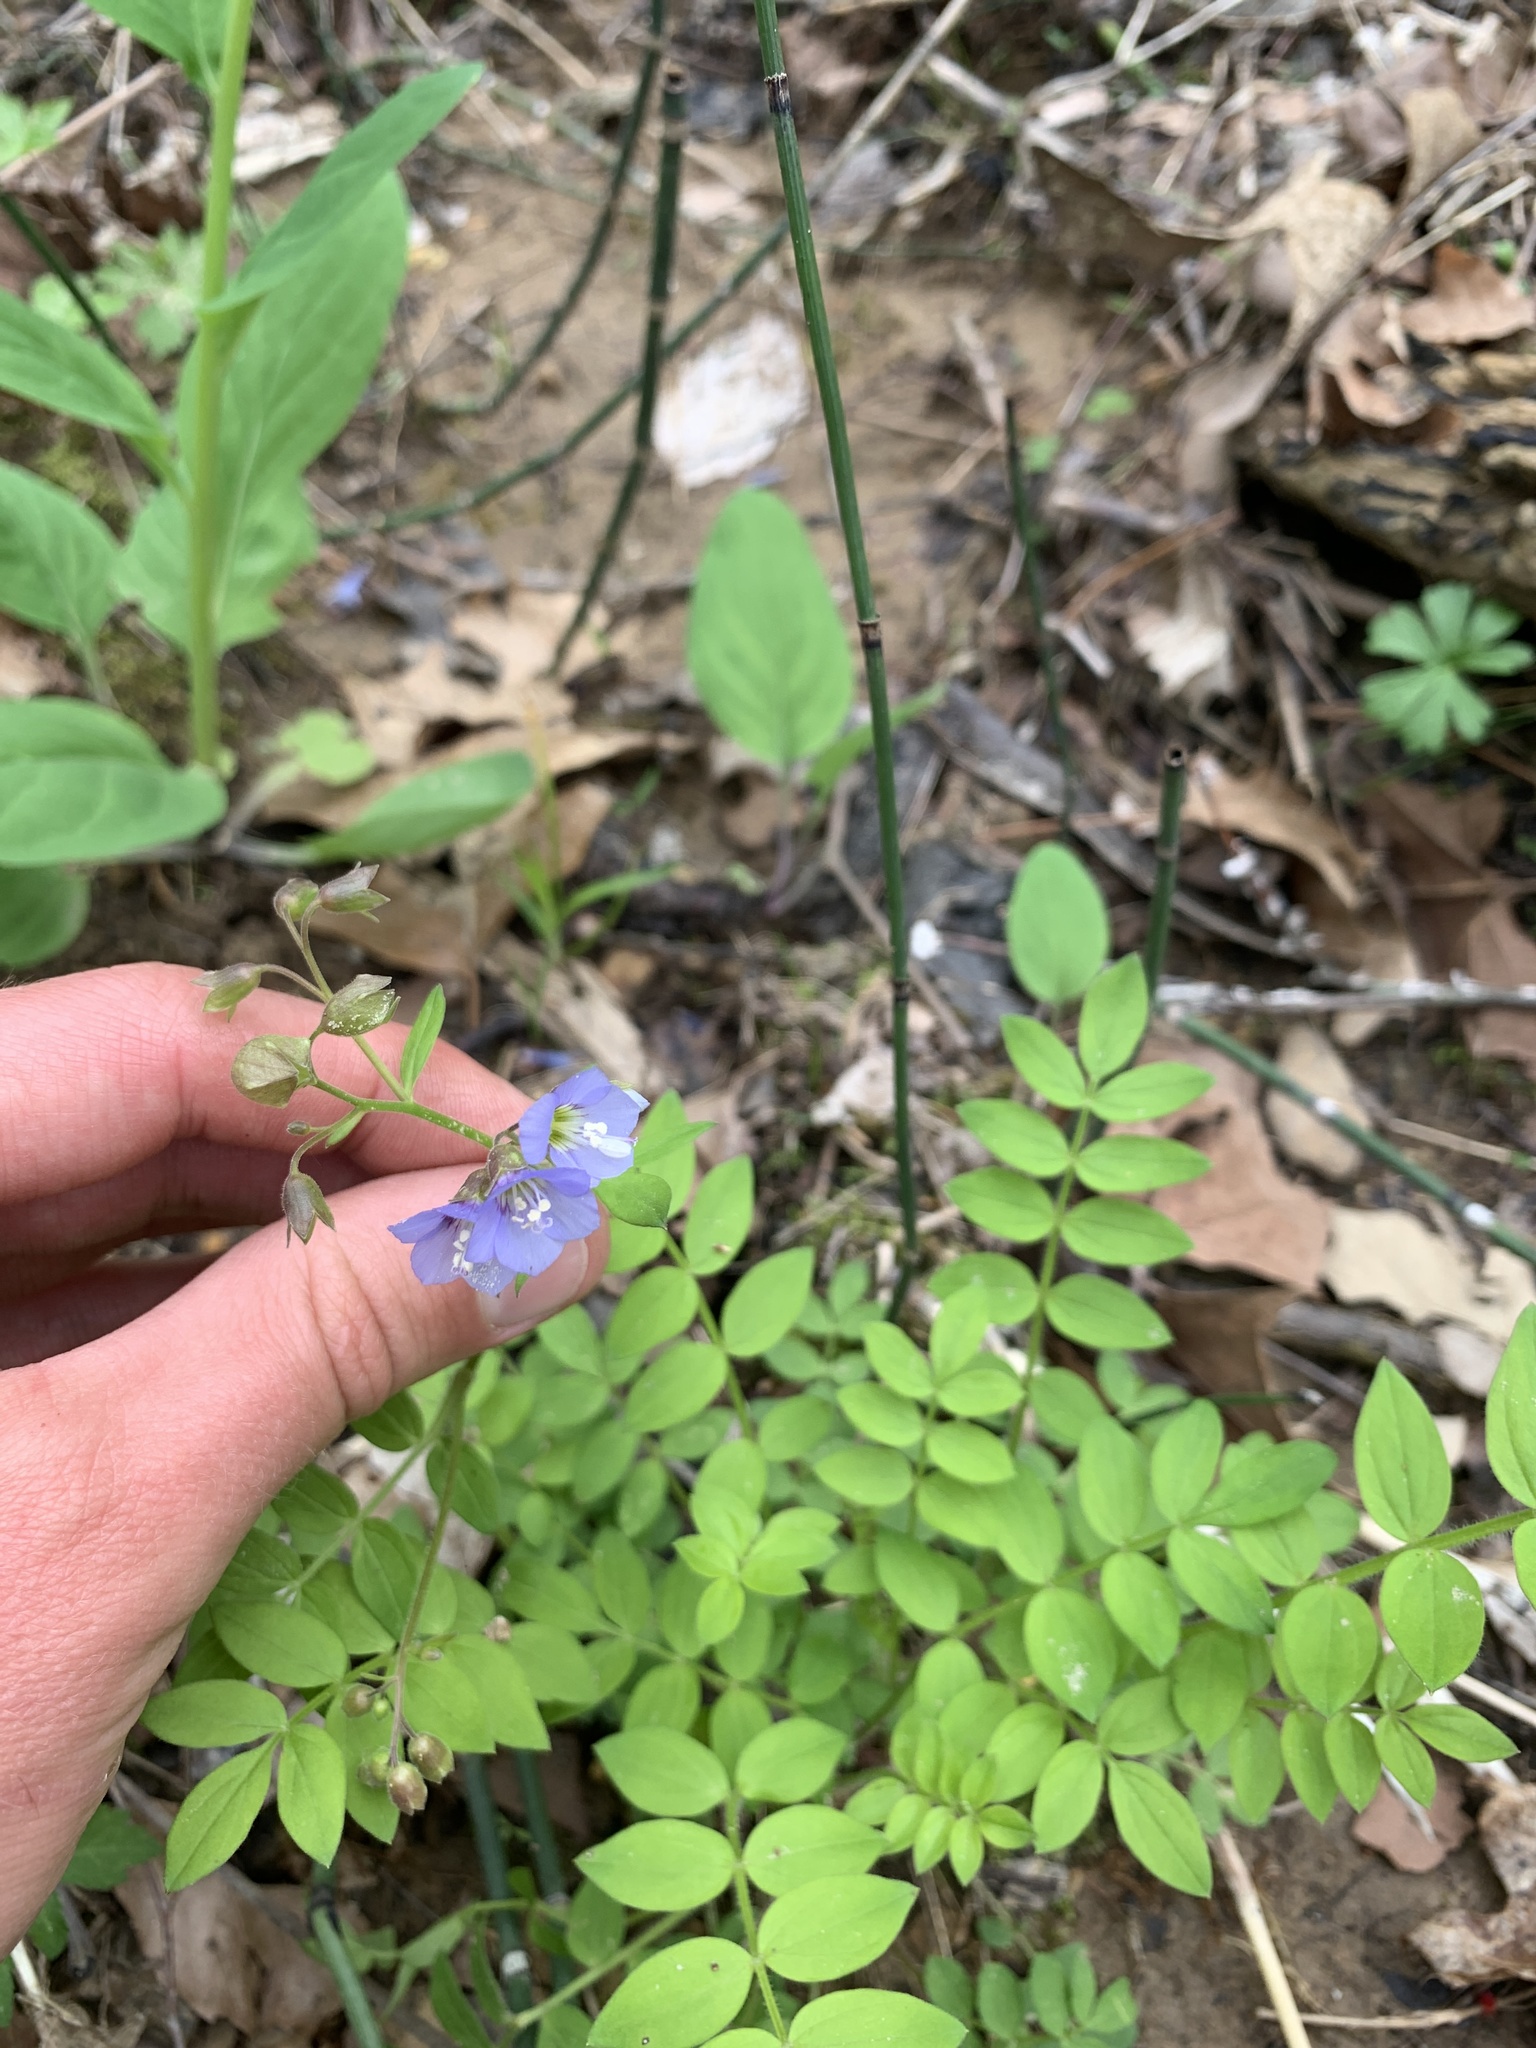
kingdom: Plantae
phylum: Tracheophyta
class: Magnoliopsida
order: Ericales
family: Polemoniaceae
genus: Polemonium
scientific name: Polemonium reptans
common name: Creeping jacob's-ladder
